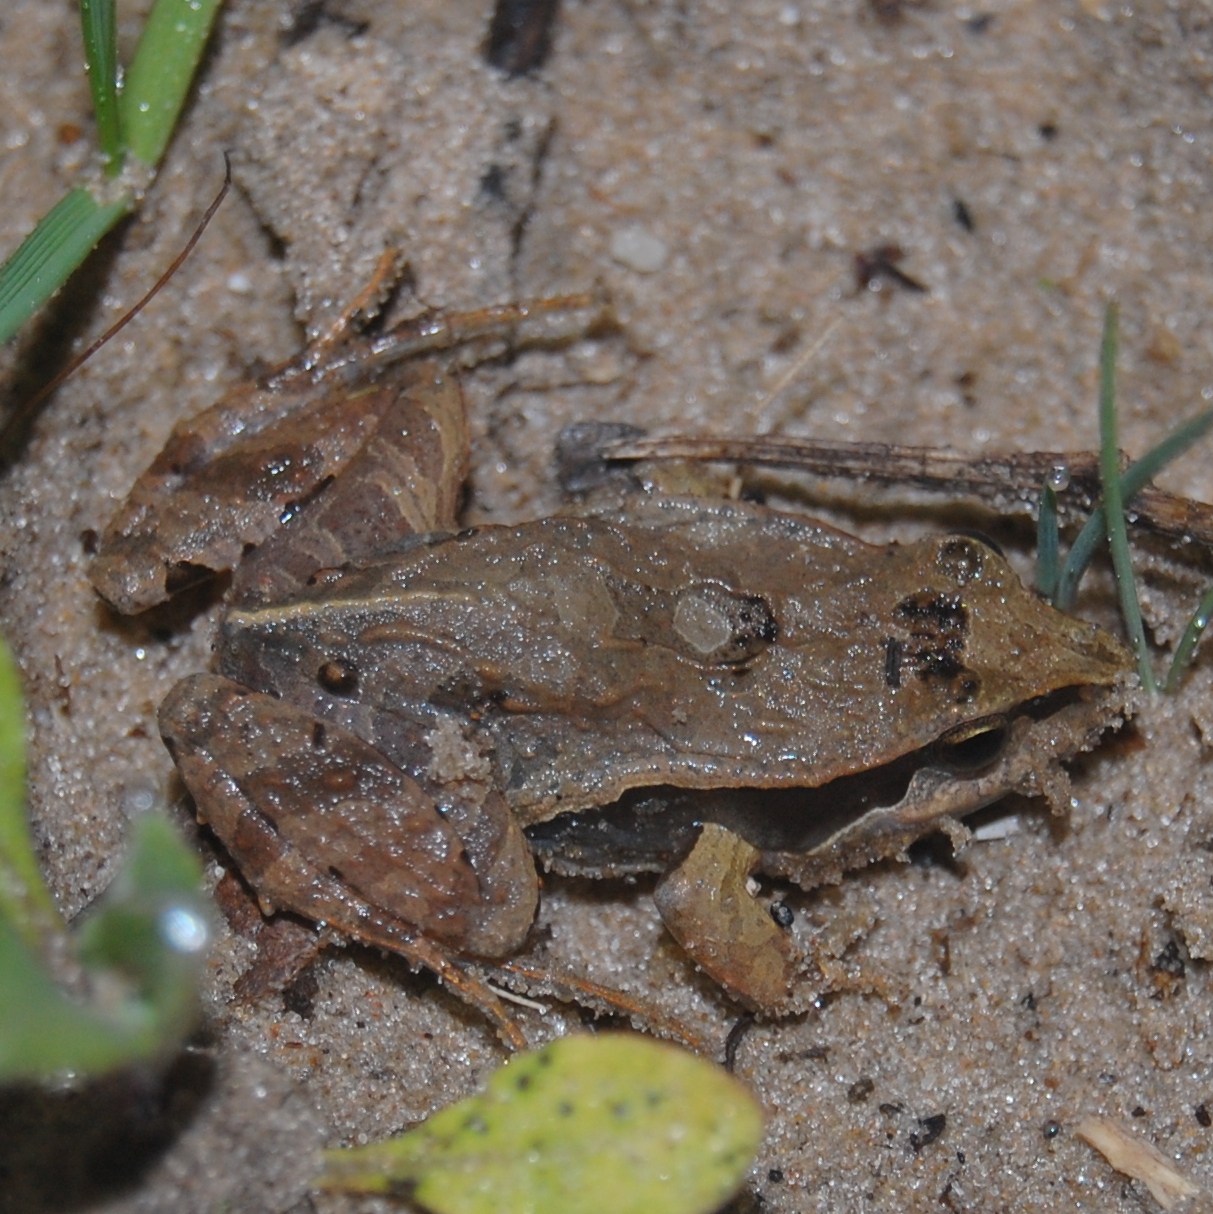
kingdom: Animalia
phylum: Chordata
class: Amphibia
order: Anura
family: Leptodactylidae
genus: Physalaemus
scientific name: Physalaemus gracilis
